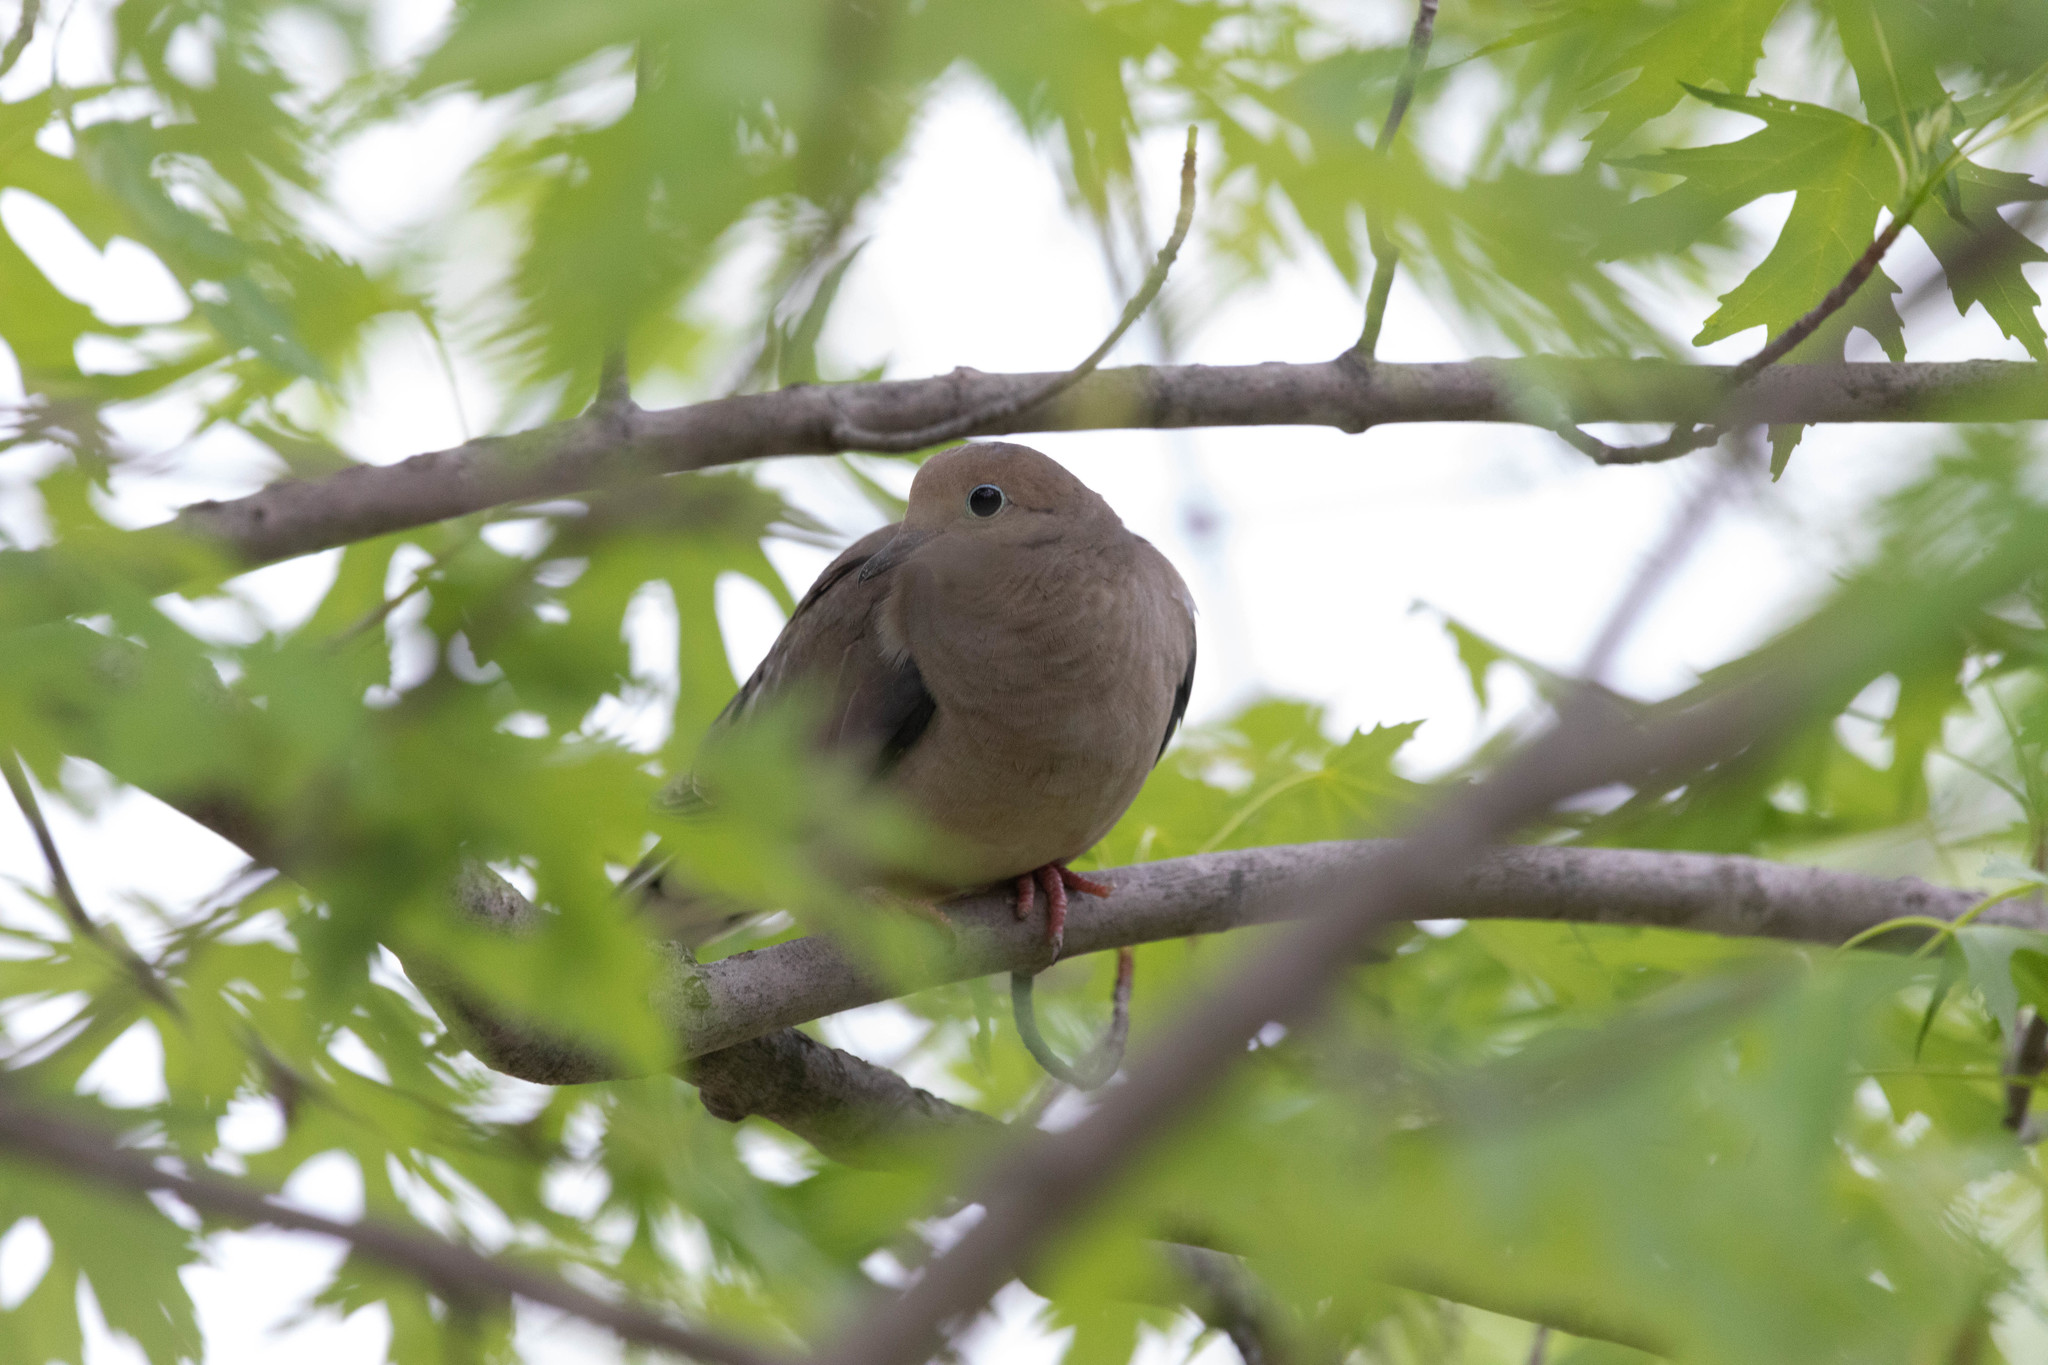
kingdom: Animalia
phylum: Chordata
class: Aves
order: Columbiformes
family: Columbidae
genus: Zenaida
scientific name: Zenaida macroura
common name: Mourning dove
